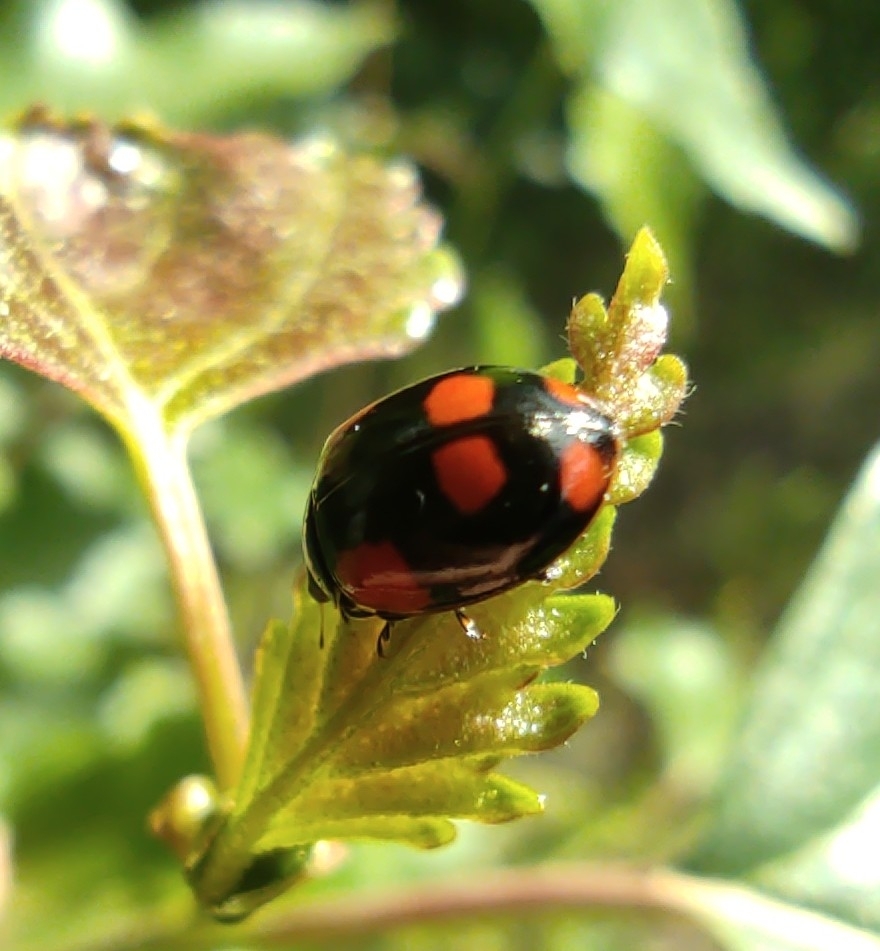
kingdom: Animalia
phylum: Arthropoda
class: Insecta
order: Coleoptera
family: Coccinellidae
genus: Adalia
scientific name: Adalia bipunctata
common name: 2-spot ladybird
